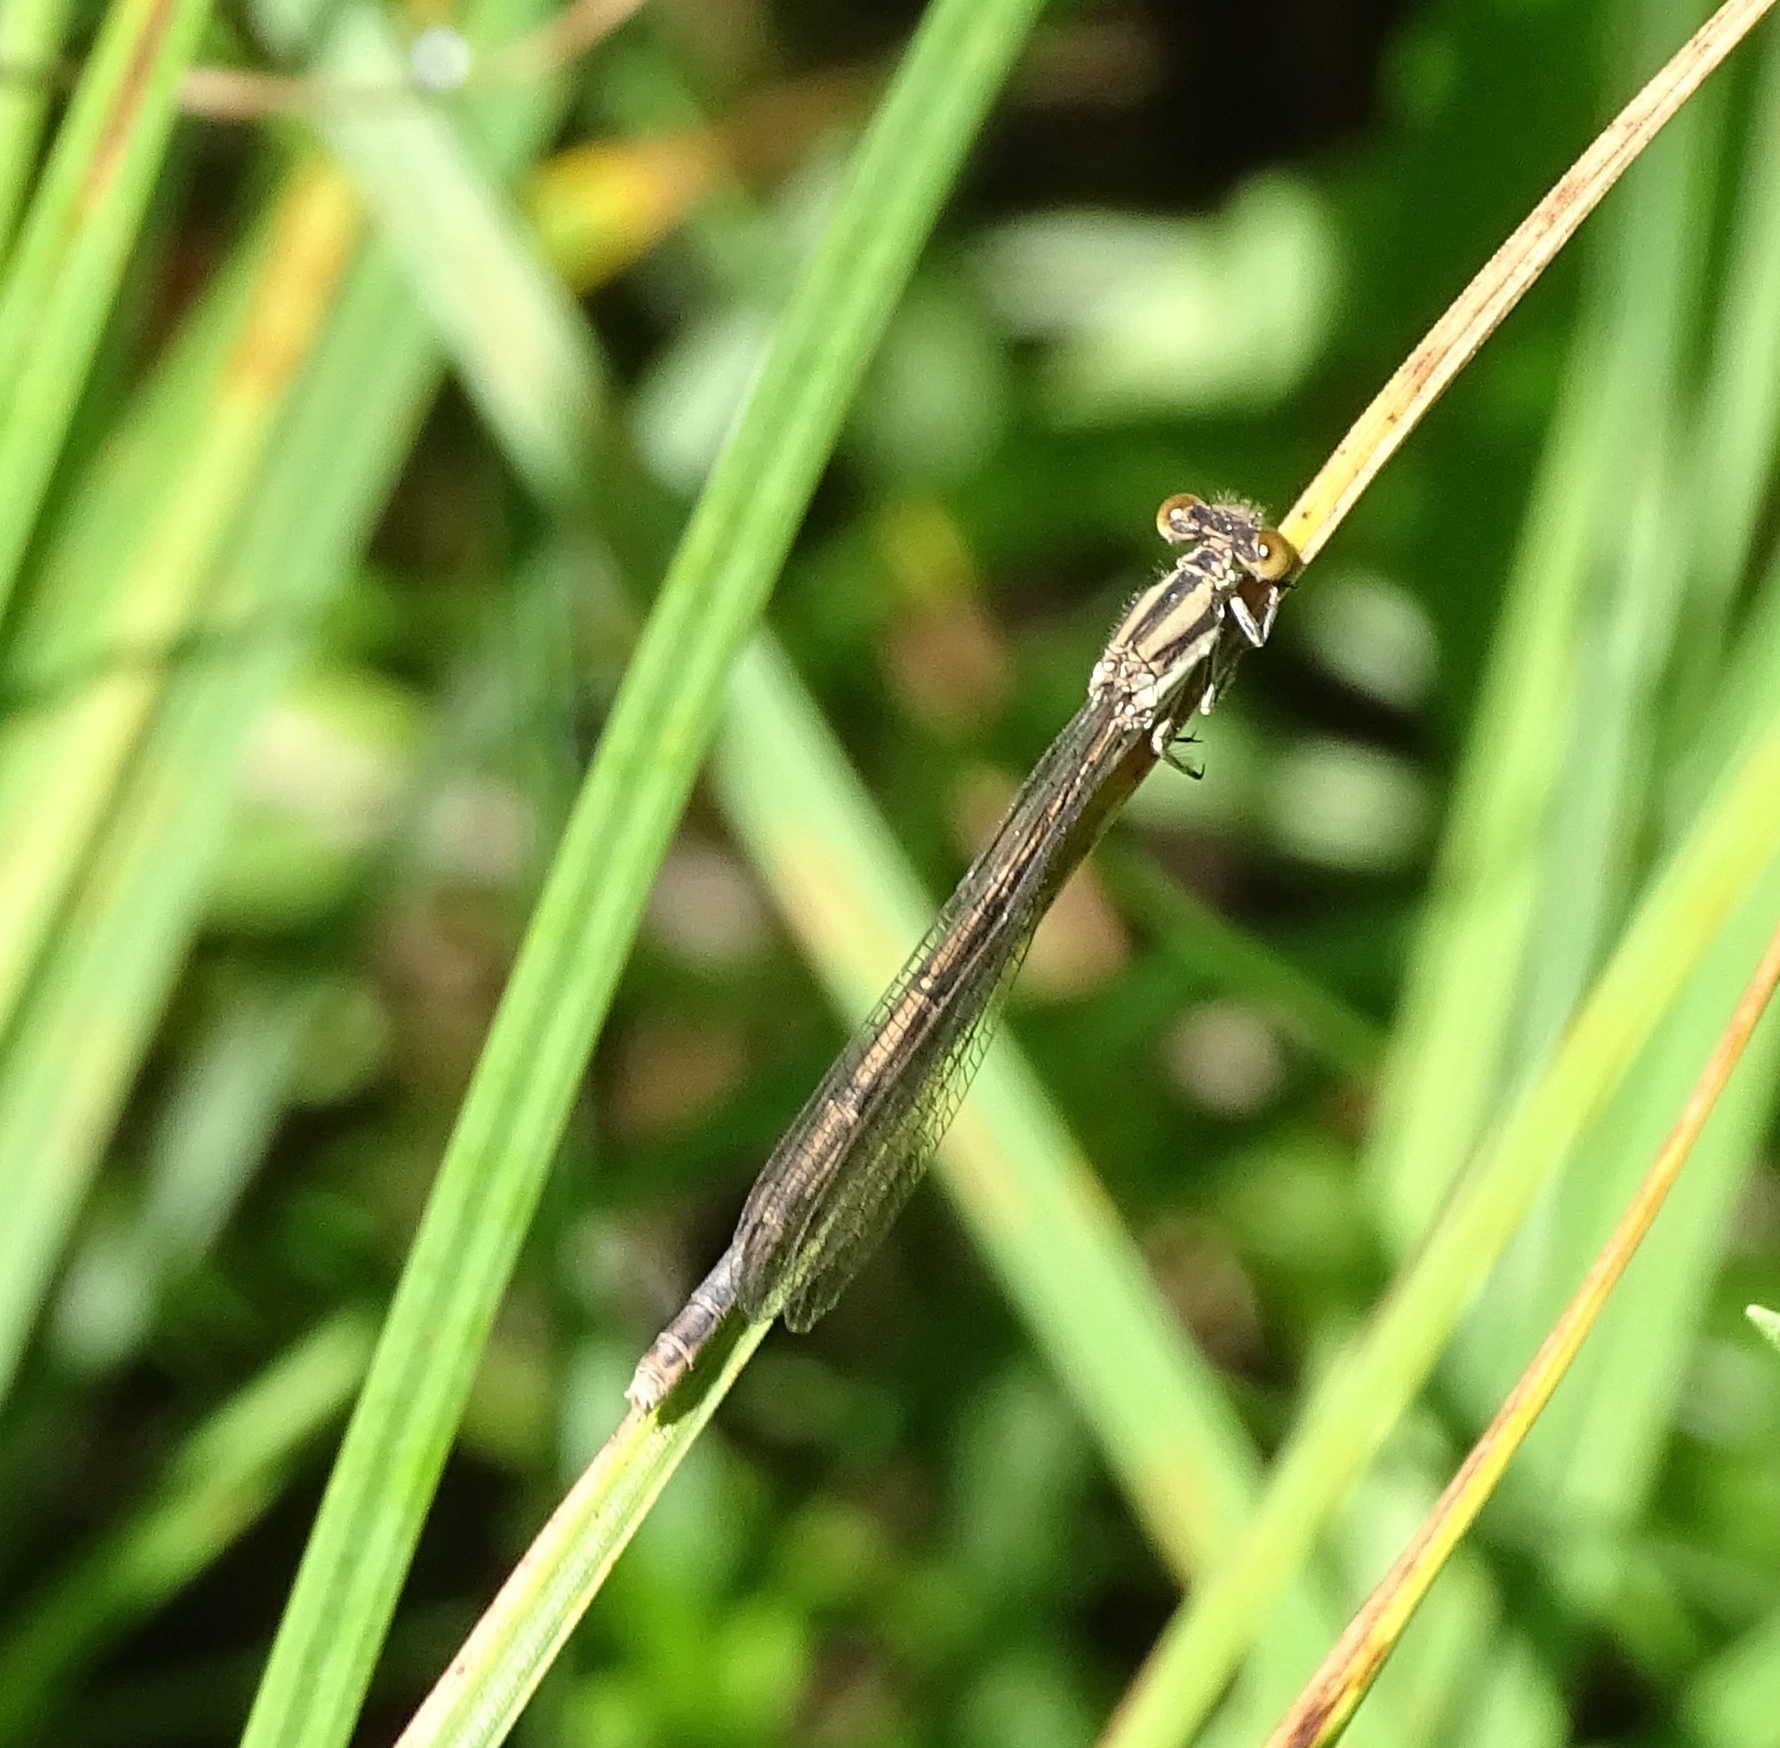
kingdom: Animalia
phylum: Arthropoda
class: Insecta
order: Odonata
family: Coenagrionidae
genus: Ischnura
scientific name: Ischnura verticalis
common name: Eastern forktail
